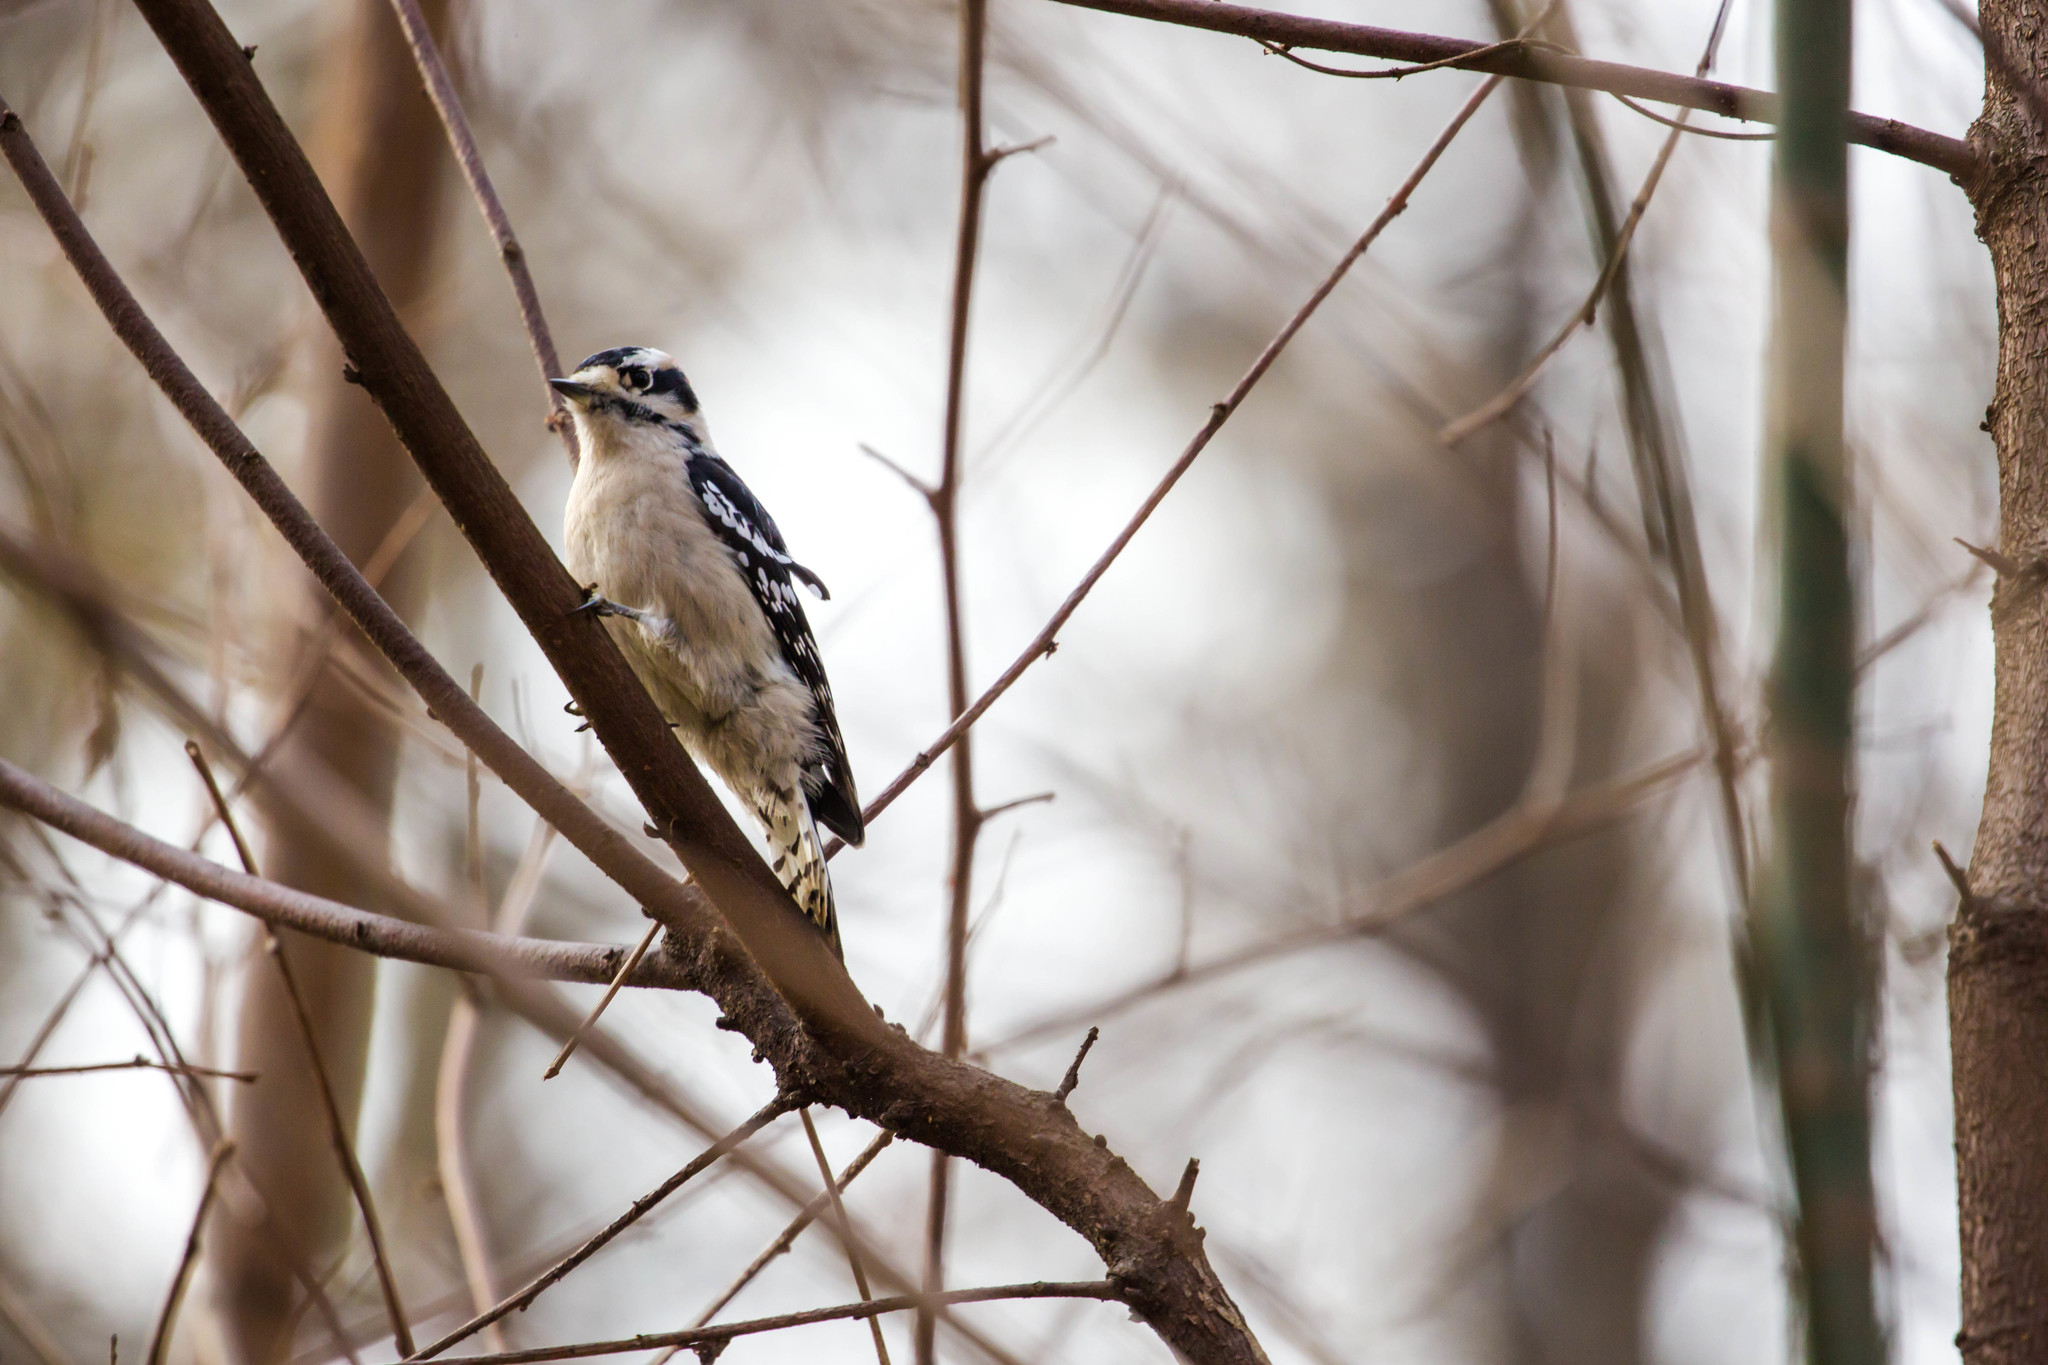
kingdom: Animalia
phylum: Chordata
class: Aves
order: Piciformes
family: Picidae
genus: Dryobates
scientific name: Dryobates pubescens
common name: Downy woodpecker
